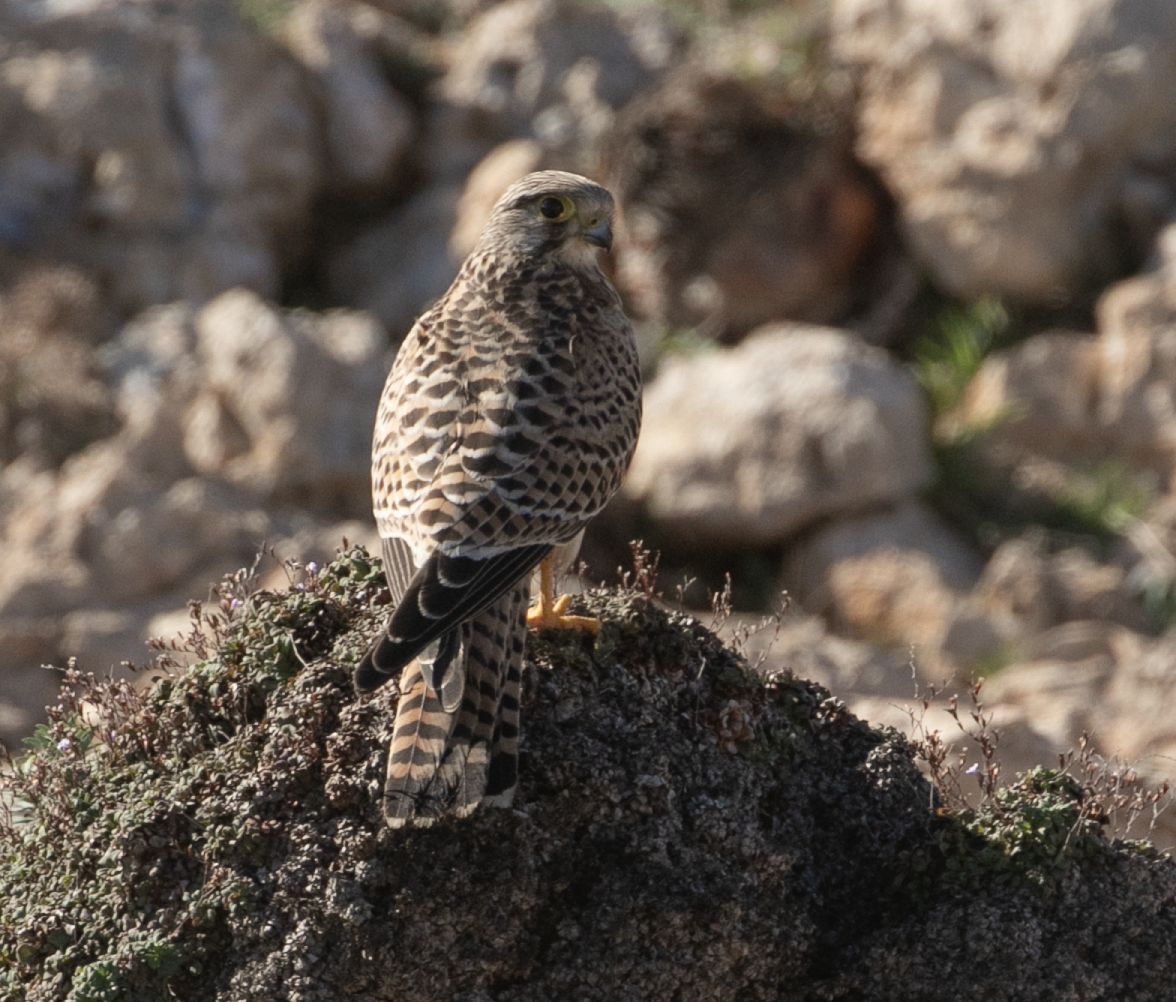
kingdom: Animalia
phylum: Chordata
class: Aves
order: Falconiformes
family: Falconidae
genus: Falco
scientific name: Falco tinnunculus
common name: Common kestrel
